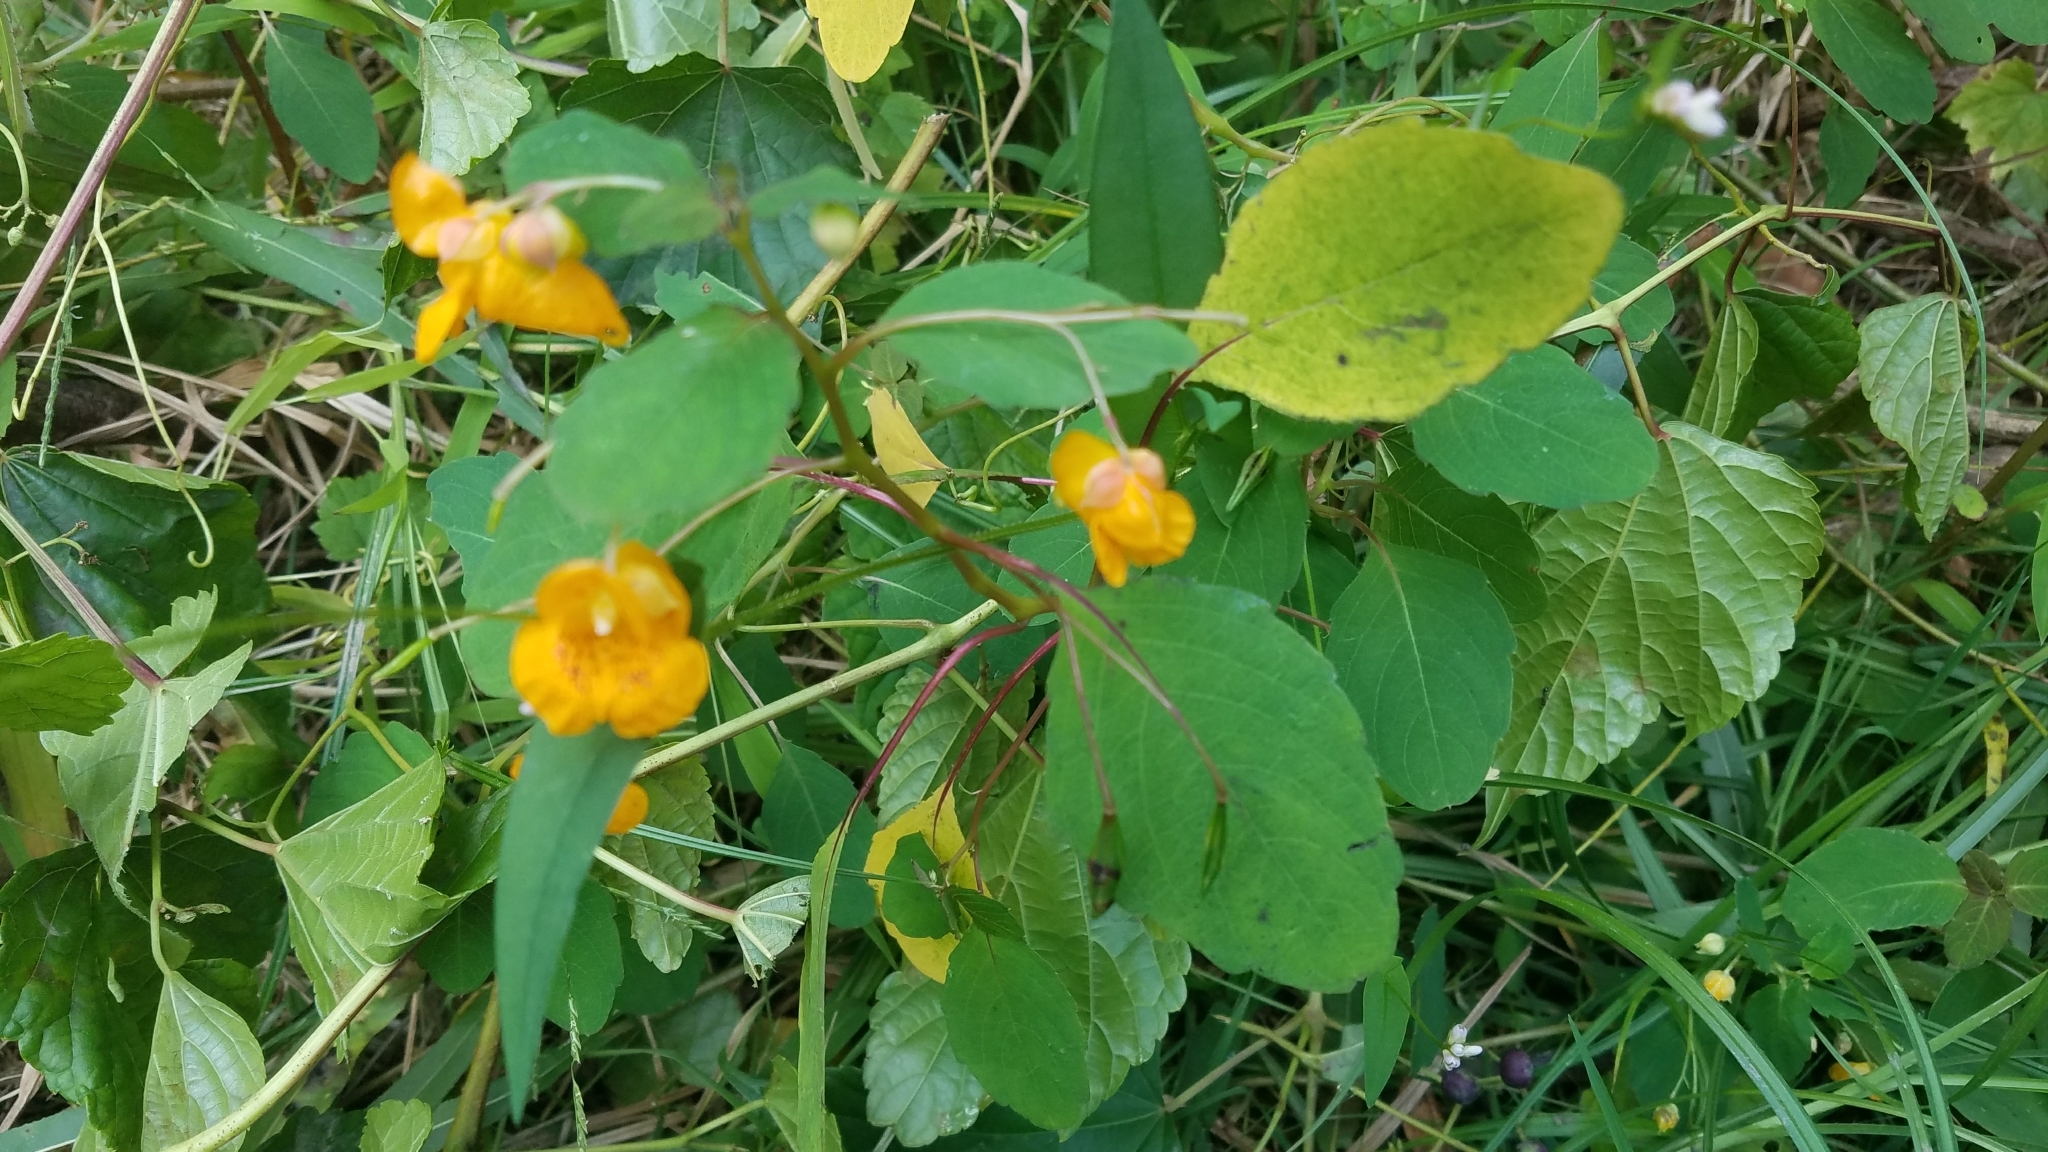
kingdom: Plantae
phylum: Tracheophyta
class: Magnoliopsida
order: Ericales
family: Balsaminaceae
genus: Impatiens
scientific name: Impatiens capensis
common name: Orange balsam
